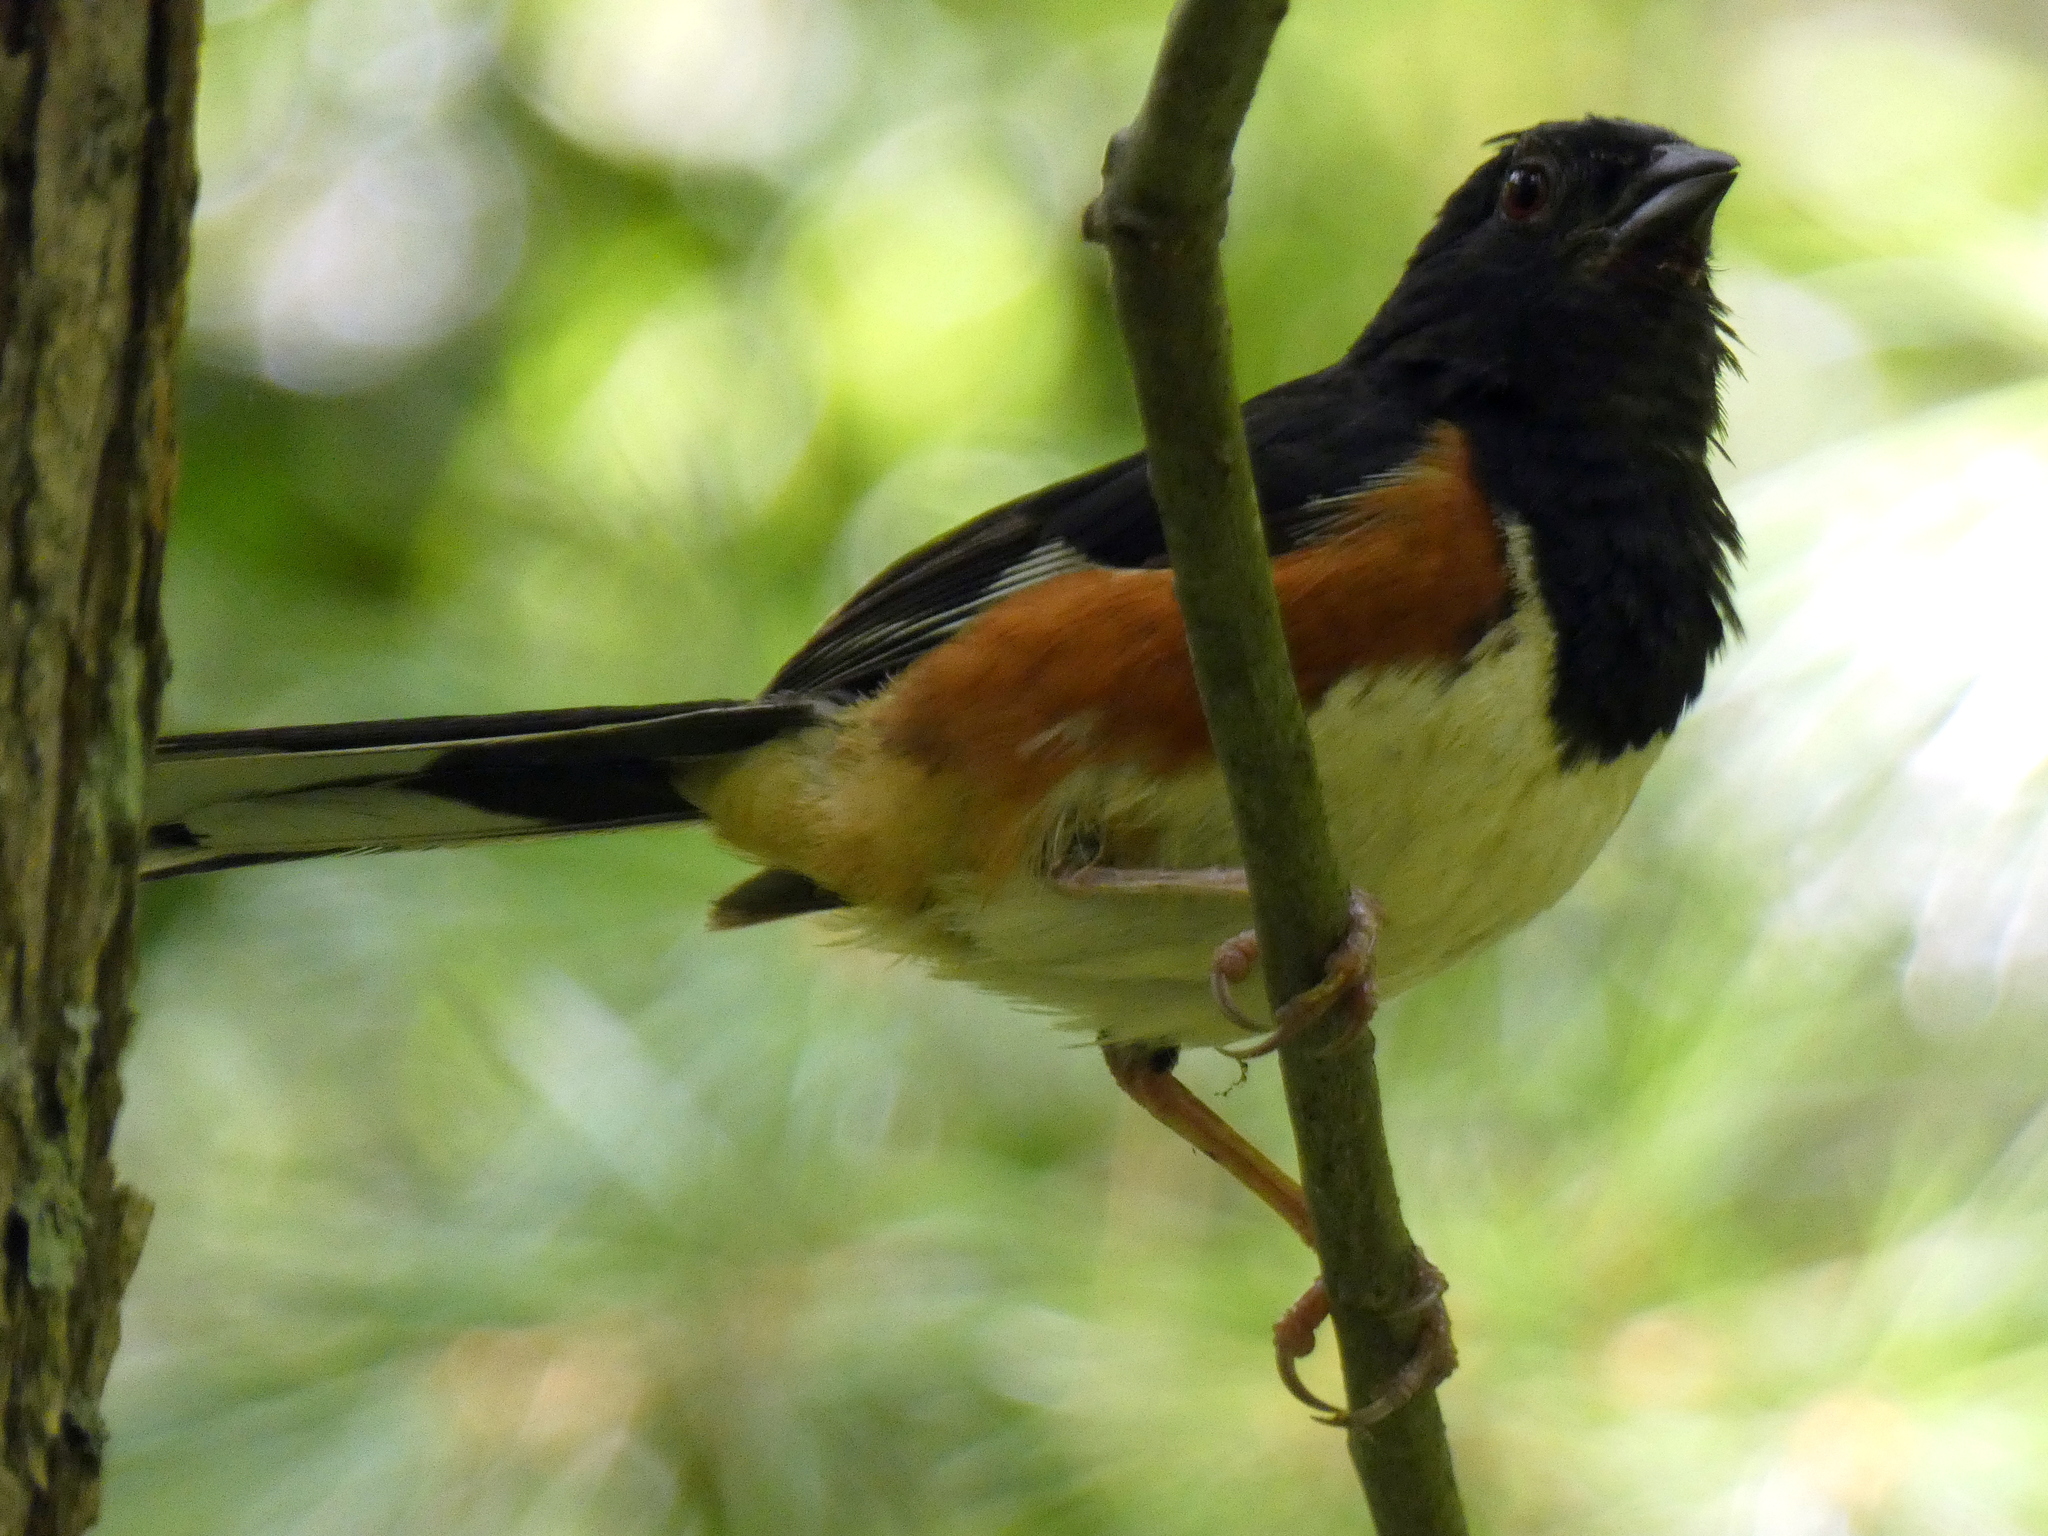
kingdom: Animalia
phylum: Chordata
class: Aves
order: Passeriformes
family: Passerellidae
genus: Pipilo
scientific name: Pipilo erythrophthalmus
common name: Eastern towhee
